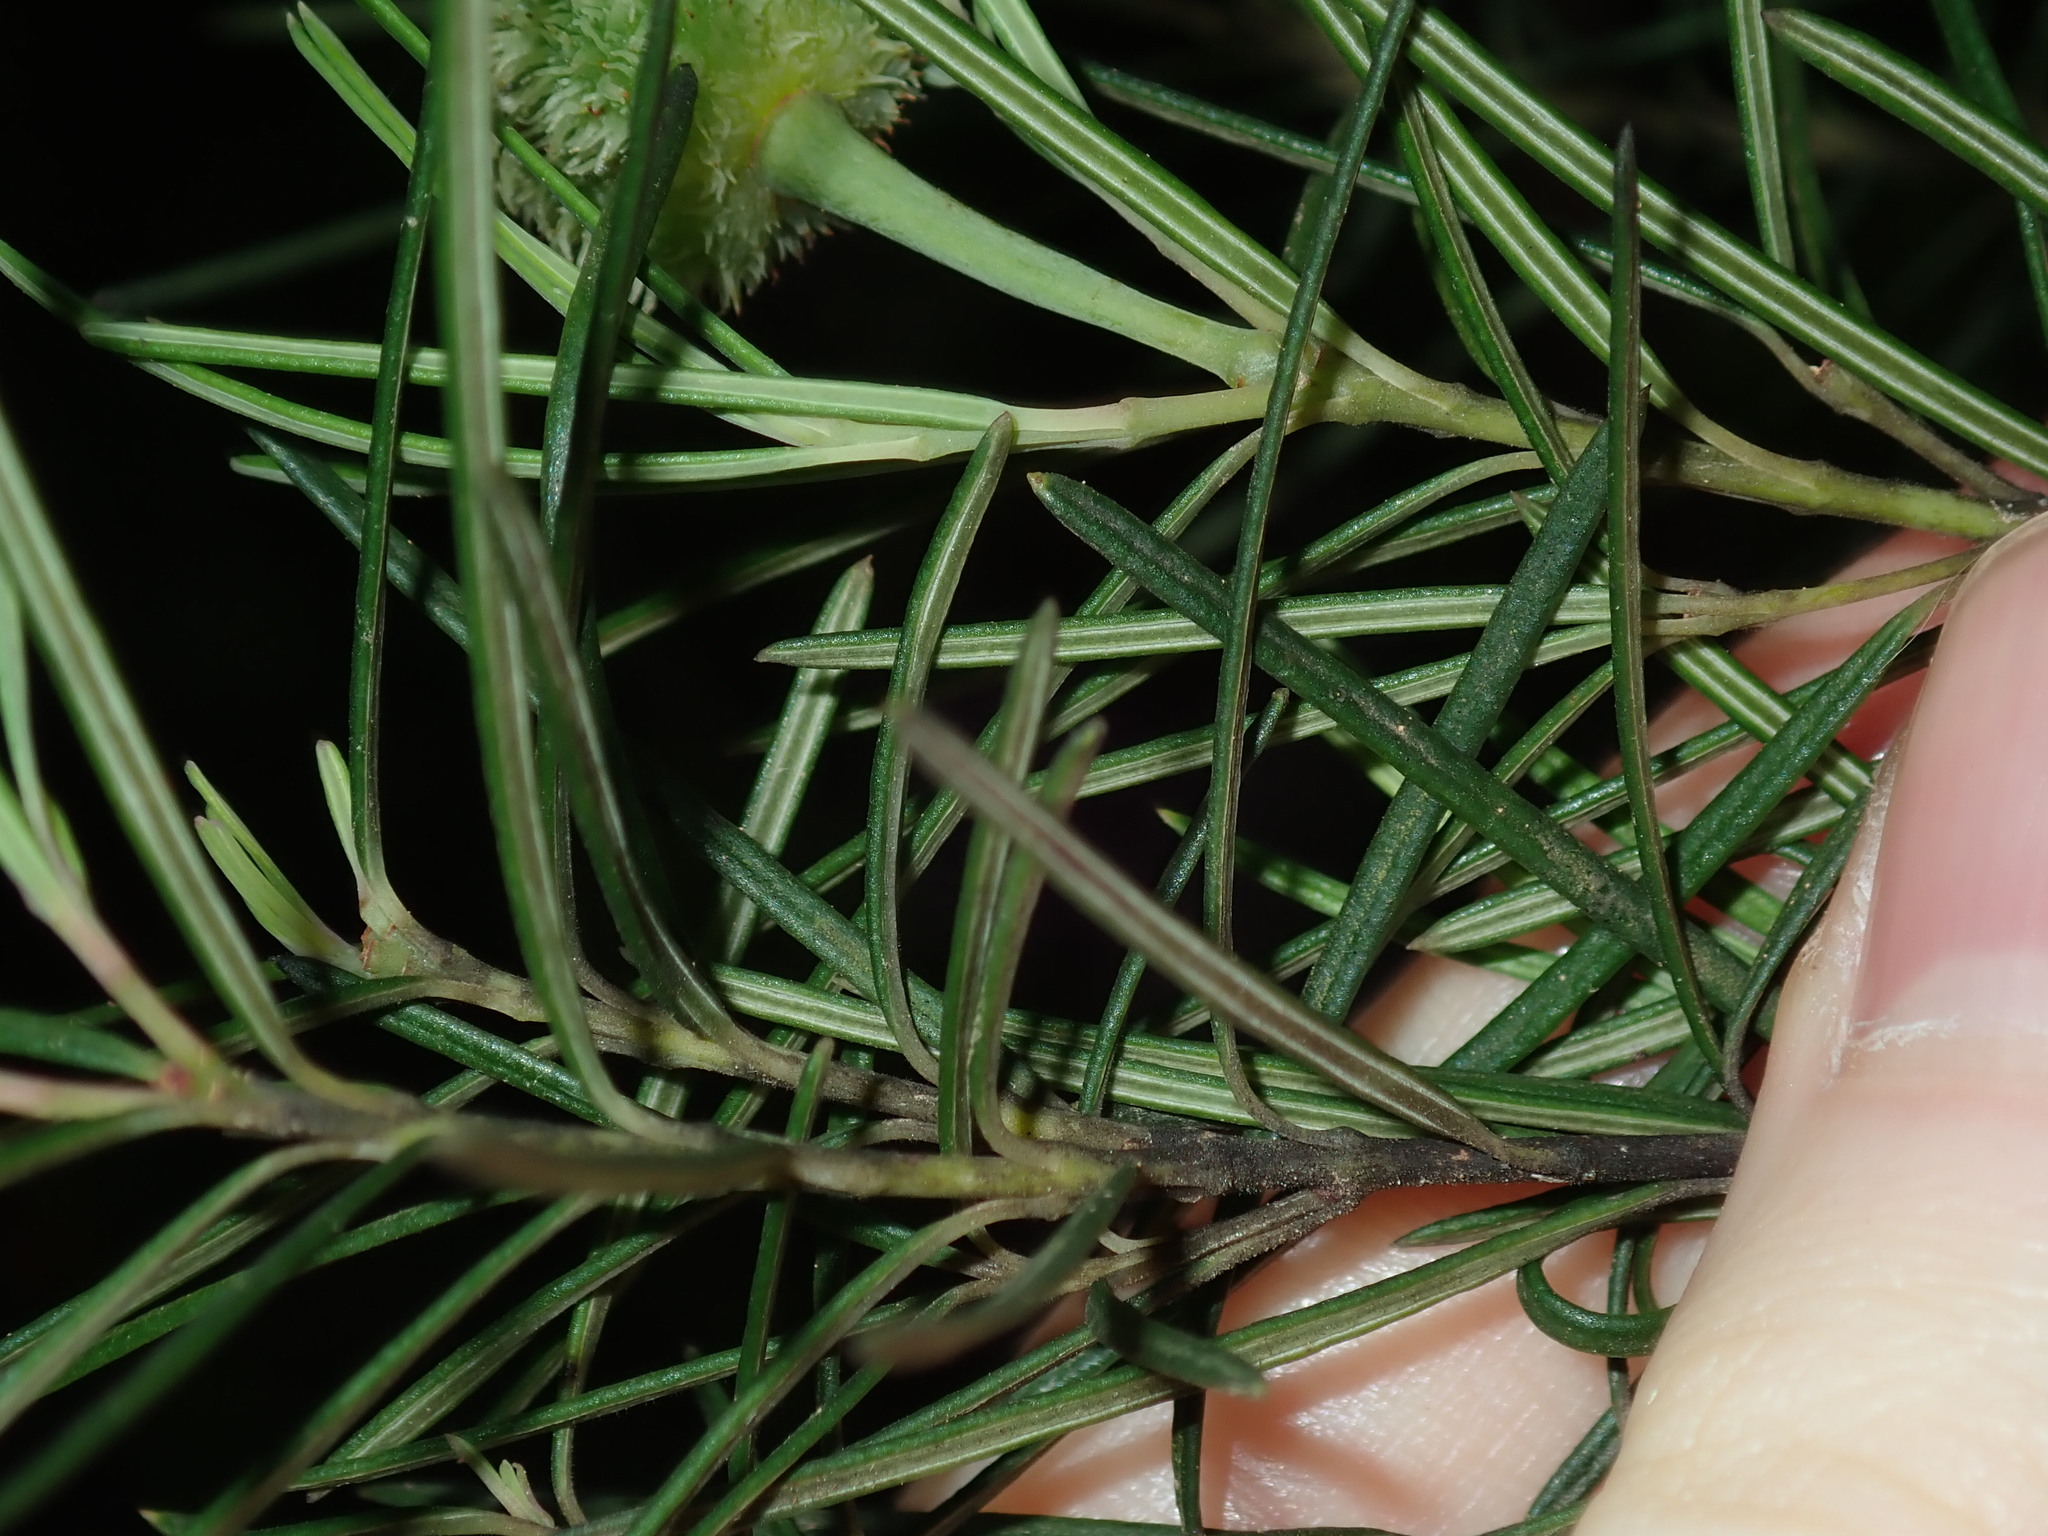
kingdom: Plantae
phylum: Tracheophyta
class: Magnoliopsida
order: Malpighiales
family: Euphorbiaceae
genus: Ricinocarpos
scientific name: Ricinocarpos pinifolius
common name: Weddingbush
